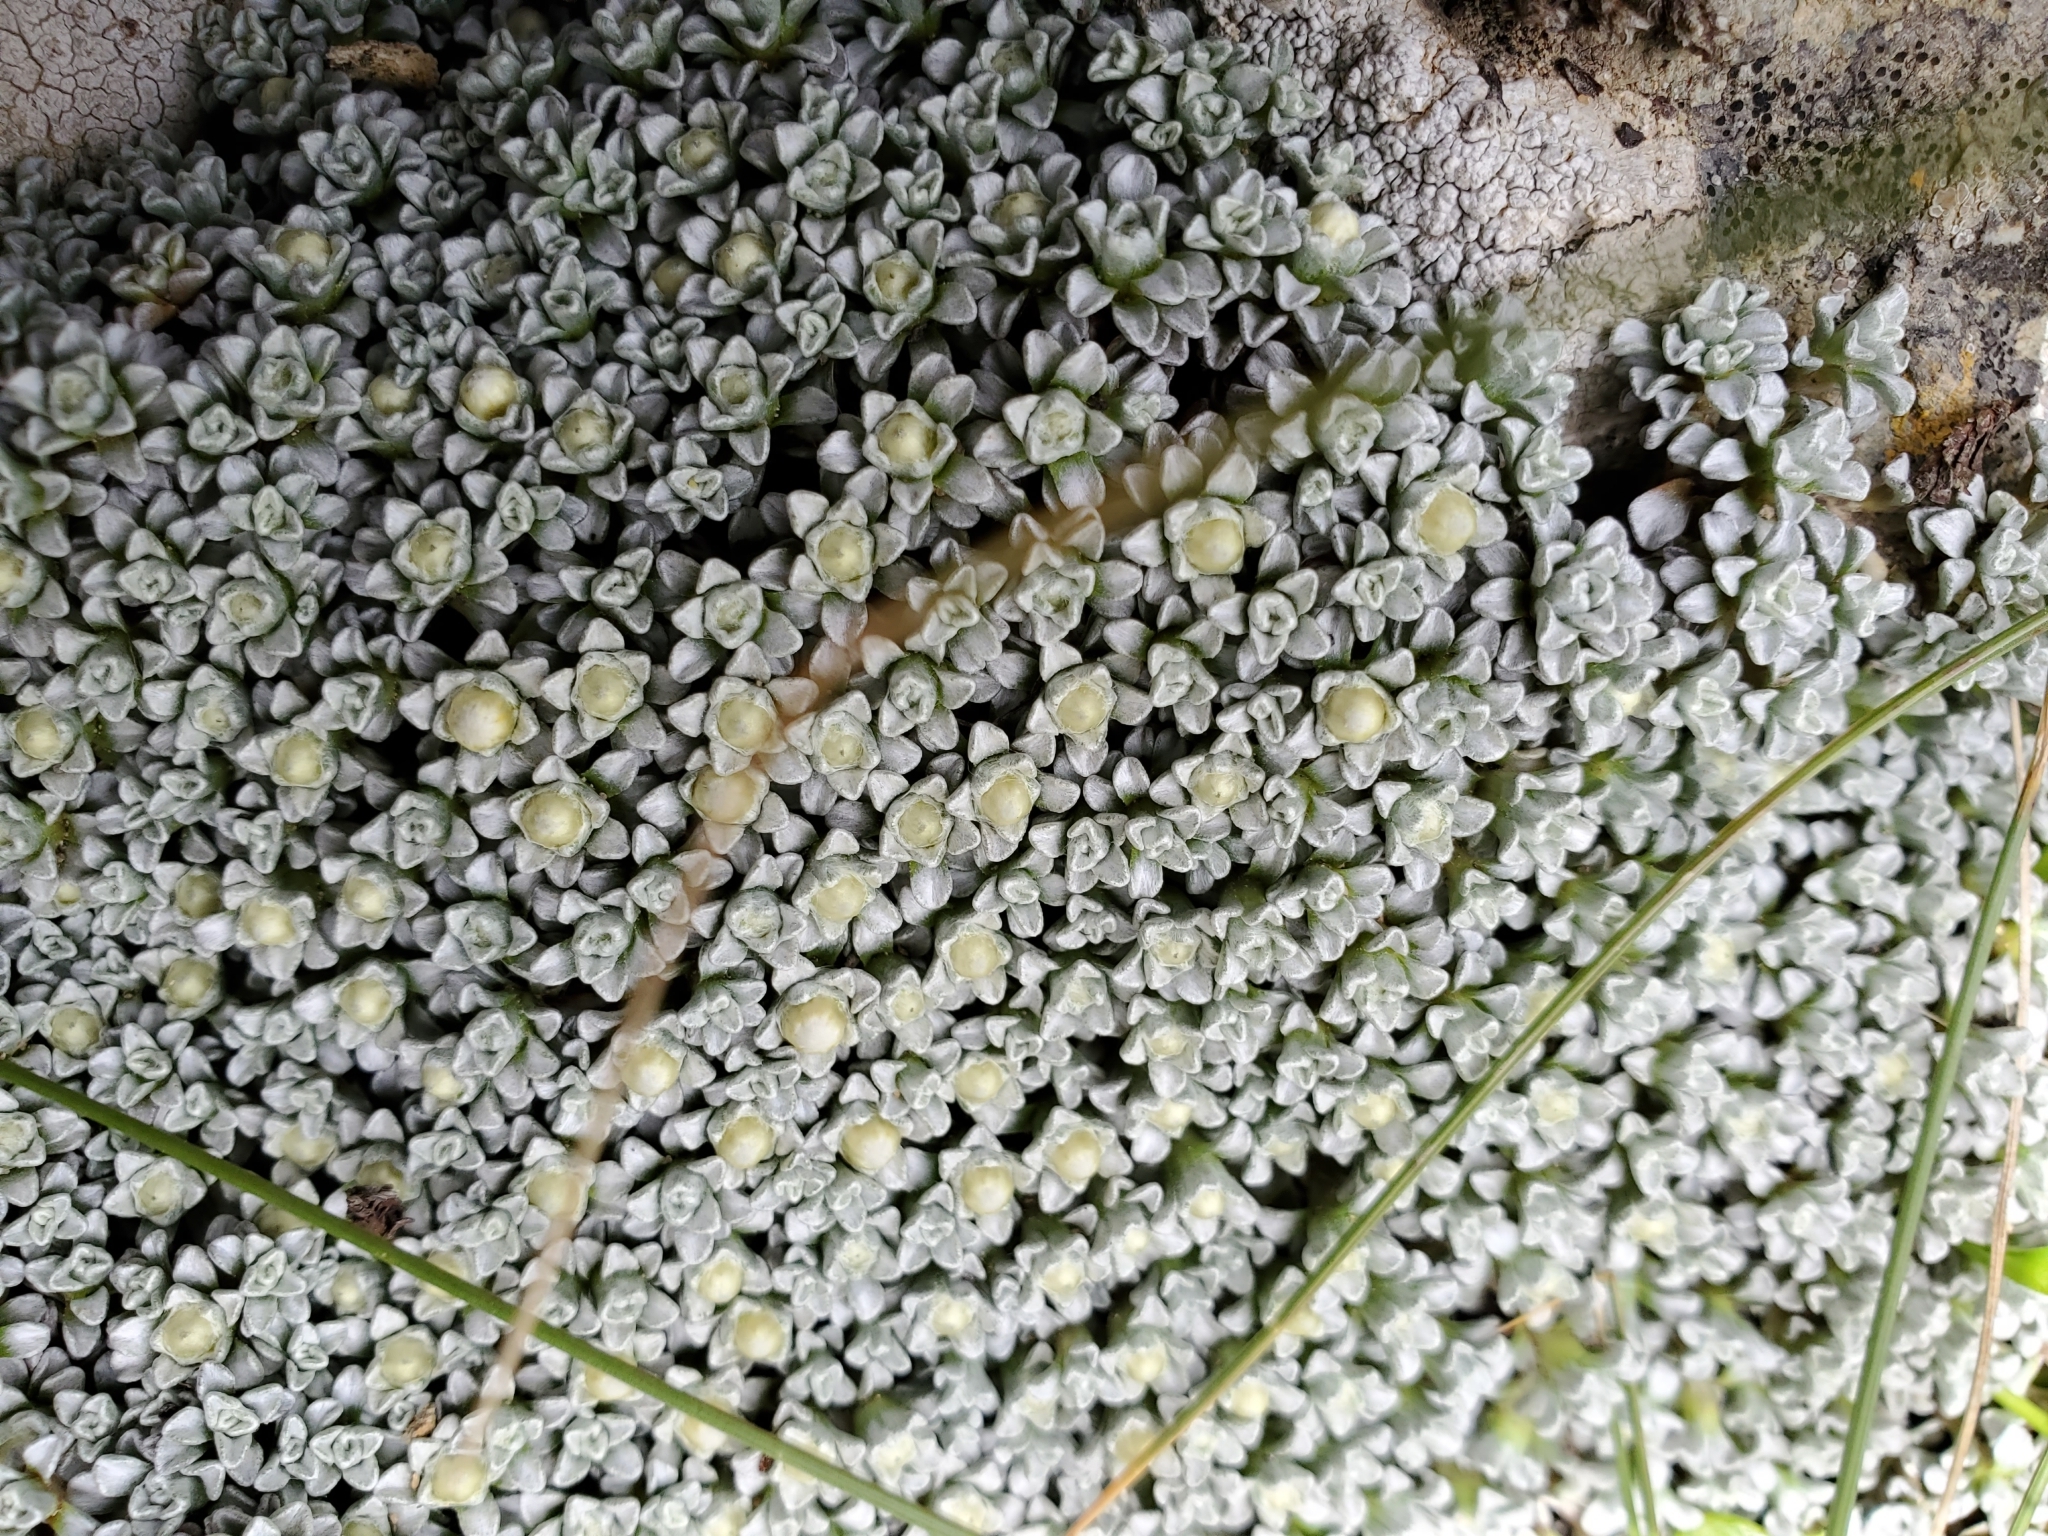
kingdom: Plantae
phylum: Tracheophyta
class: Magnoliopsida
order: Asterales
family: Asteraceae
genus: Raoulia
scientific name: Raoulia hookeri
